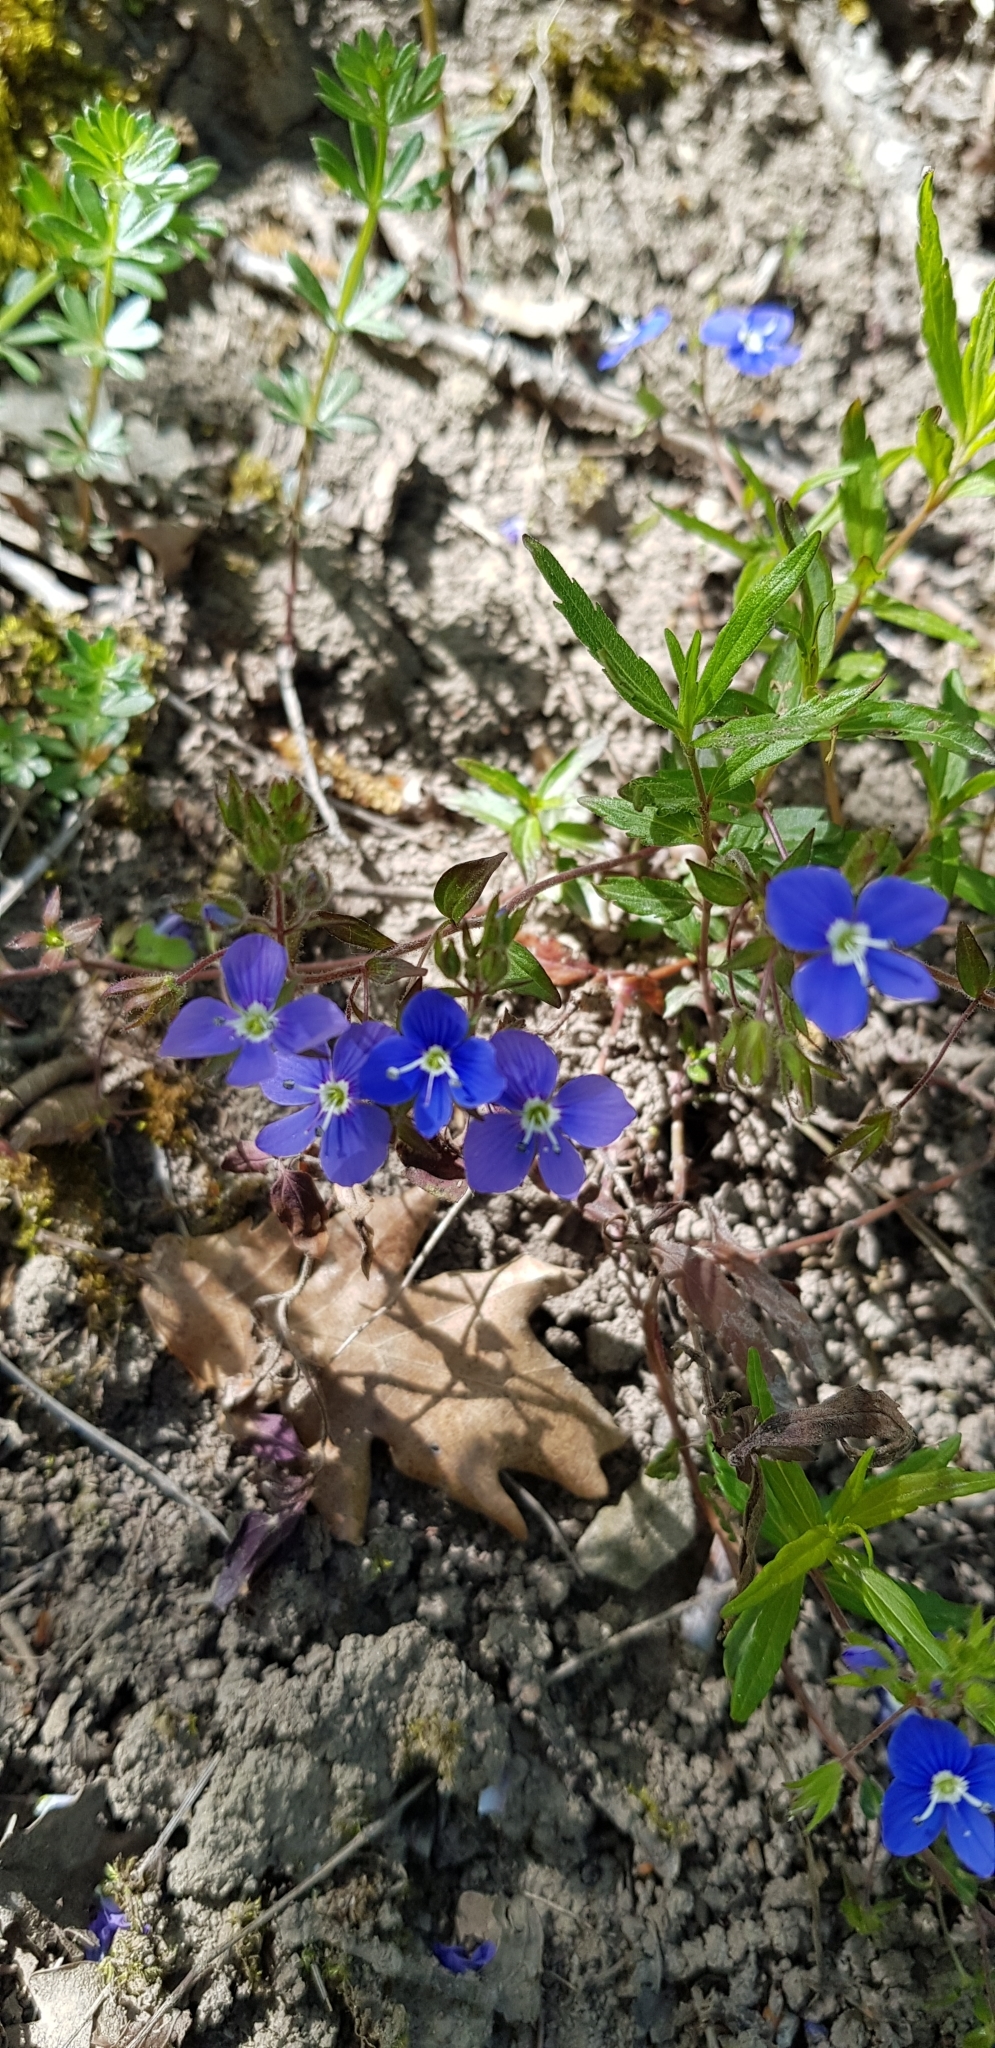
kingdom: Plantae
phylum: Tracheophyta
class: Magnoliopsida
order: Lamiales
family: Plantaginaceae
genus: Veronica
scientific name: Veronica
